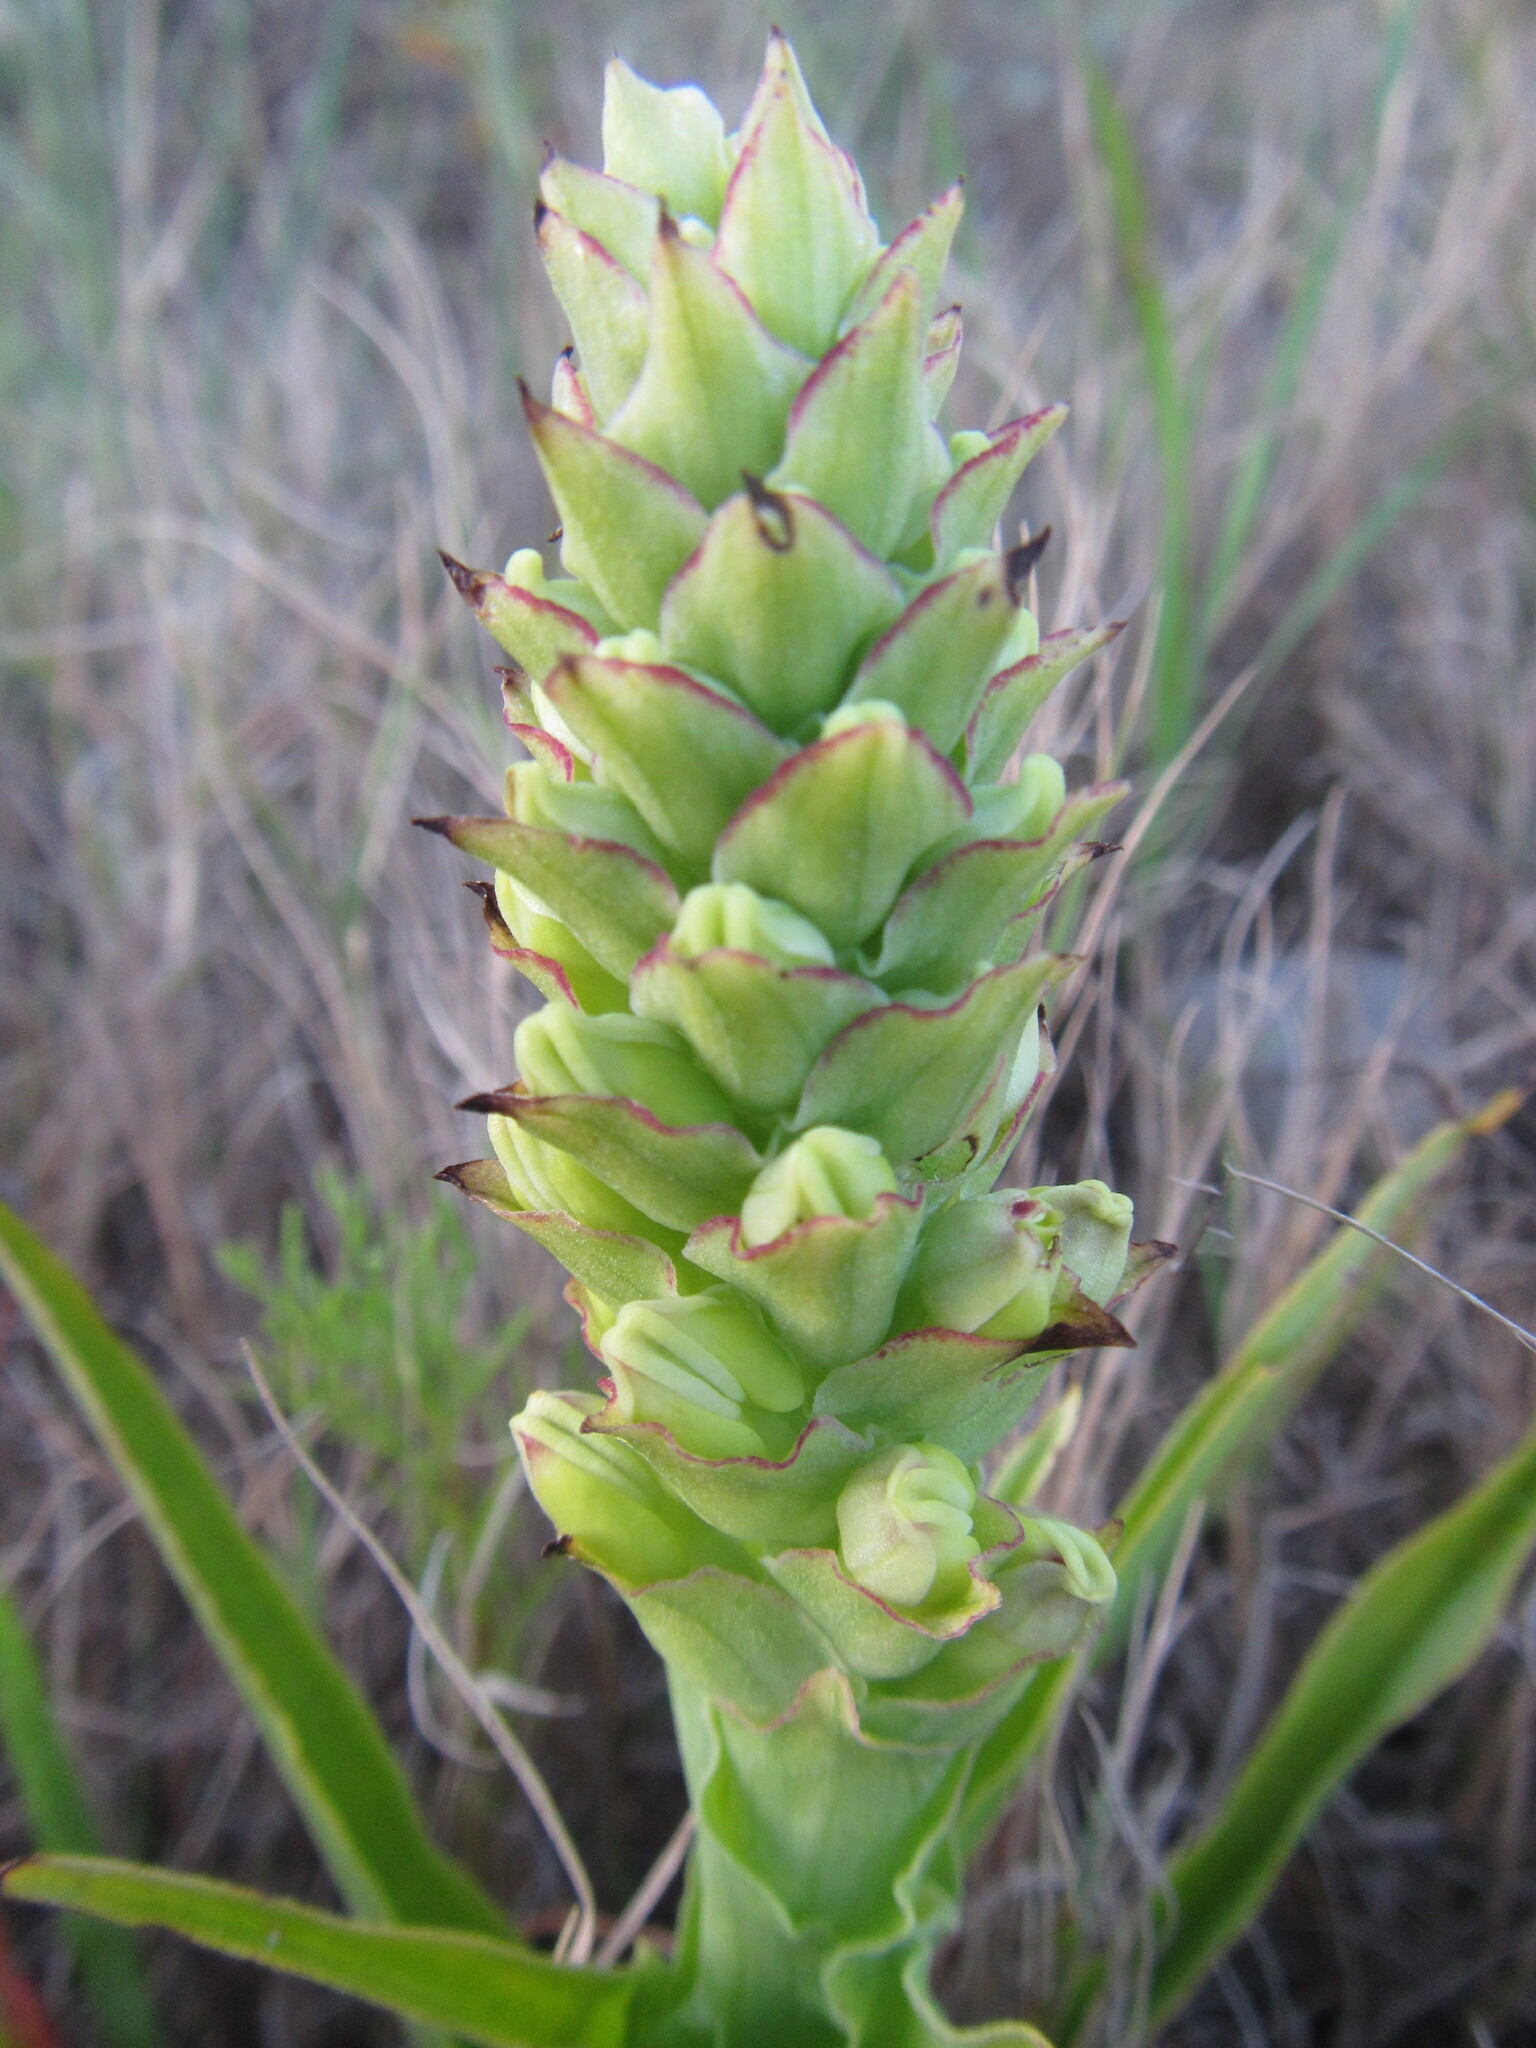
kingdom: Plantae
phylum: Tracheophyta
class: Liliopsida
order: Asparagales
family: Orchidaceae
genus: Corycium
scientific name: Corycium orobanchoides
